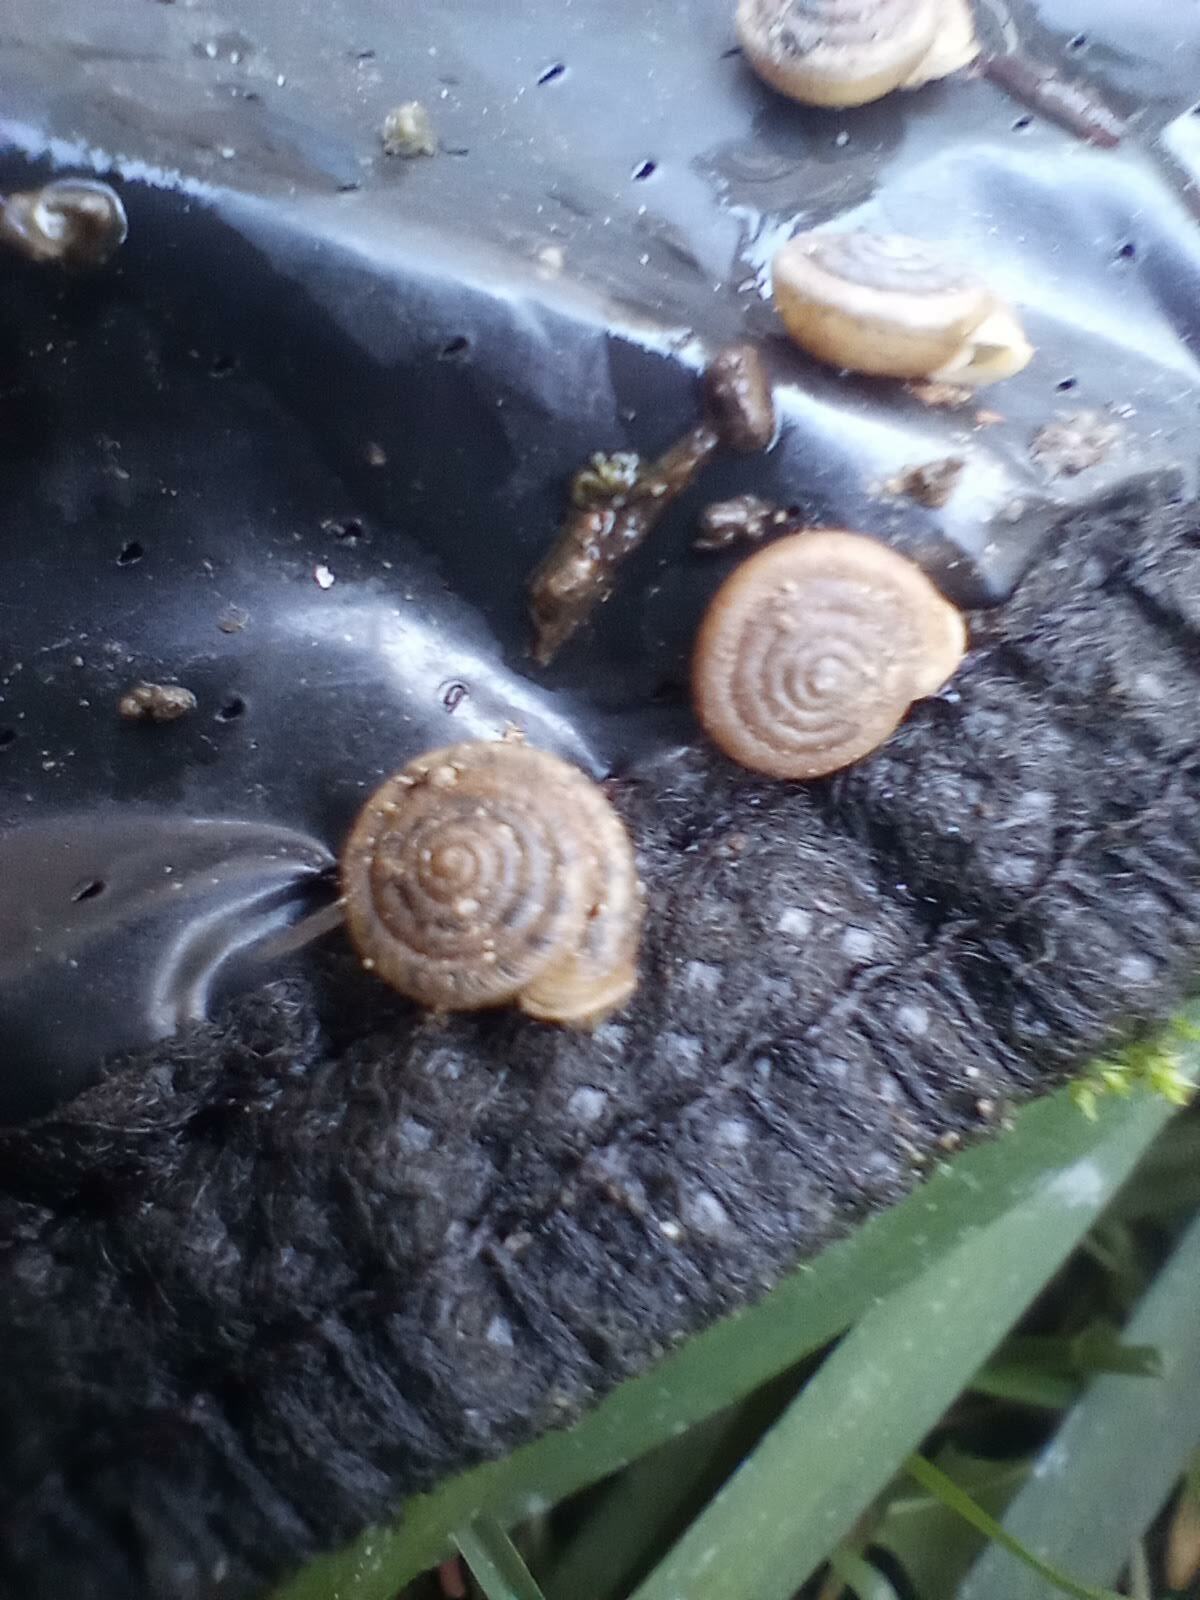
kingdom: Animalia
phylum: Mollusca
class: Gastropoda
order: Stylommatophora
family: Polygyridae
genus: Polygyra
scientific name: Polygyra cereolus
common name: Southern flatcone snail
